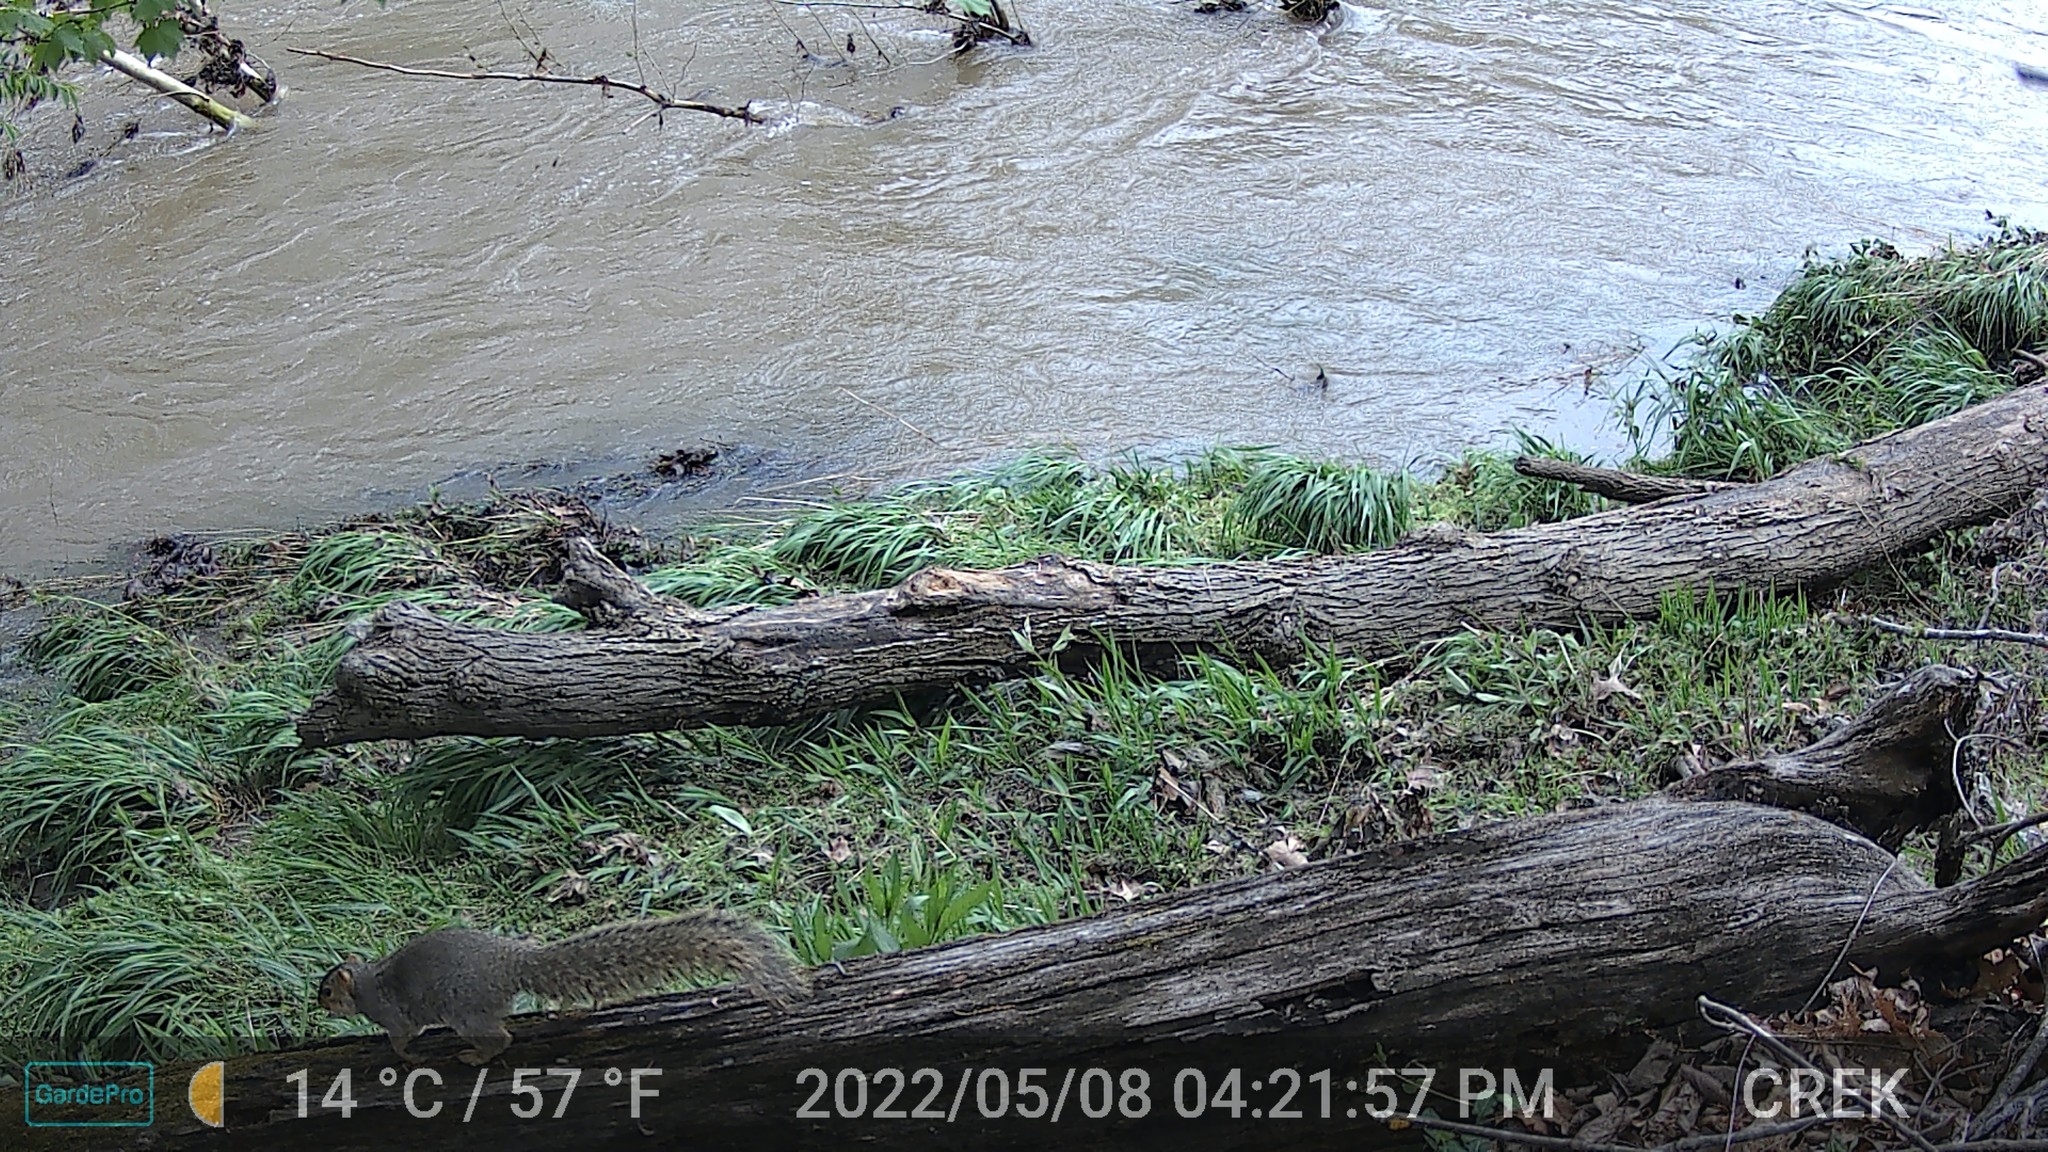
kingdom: Animalia
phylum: Chordata
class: Mammalia
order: Rodentia
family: Sciuridae
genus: Sciurus
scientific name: Sciurus niger
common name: Fox squirrel
